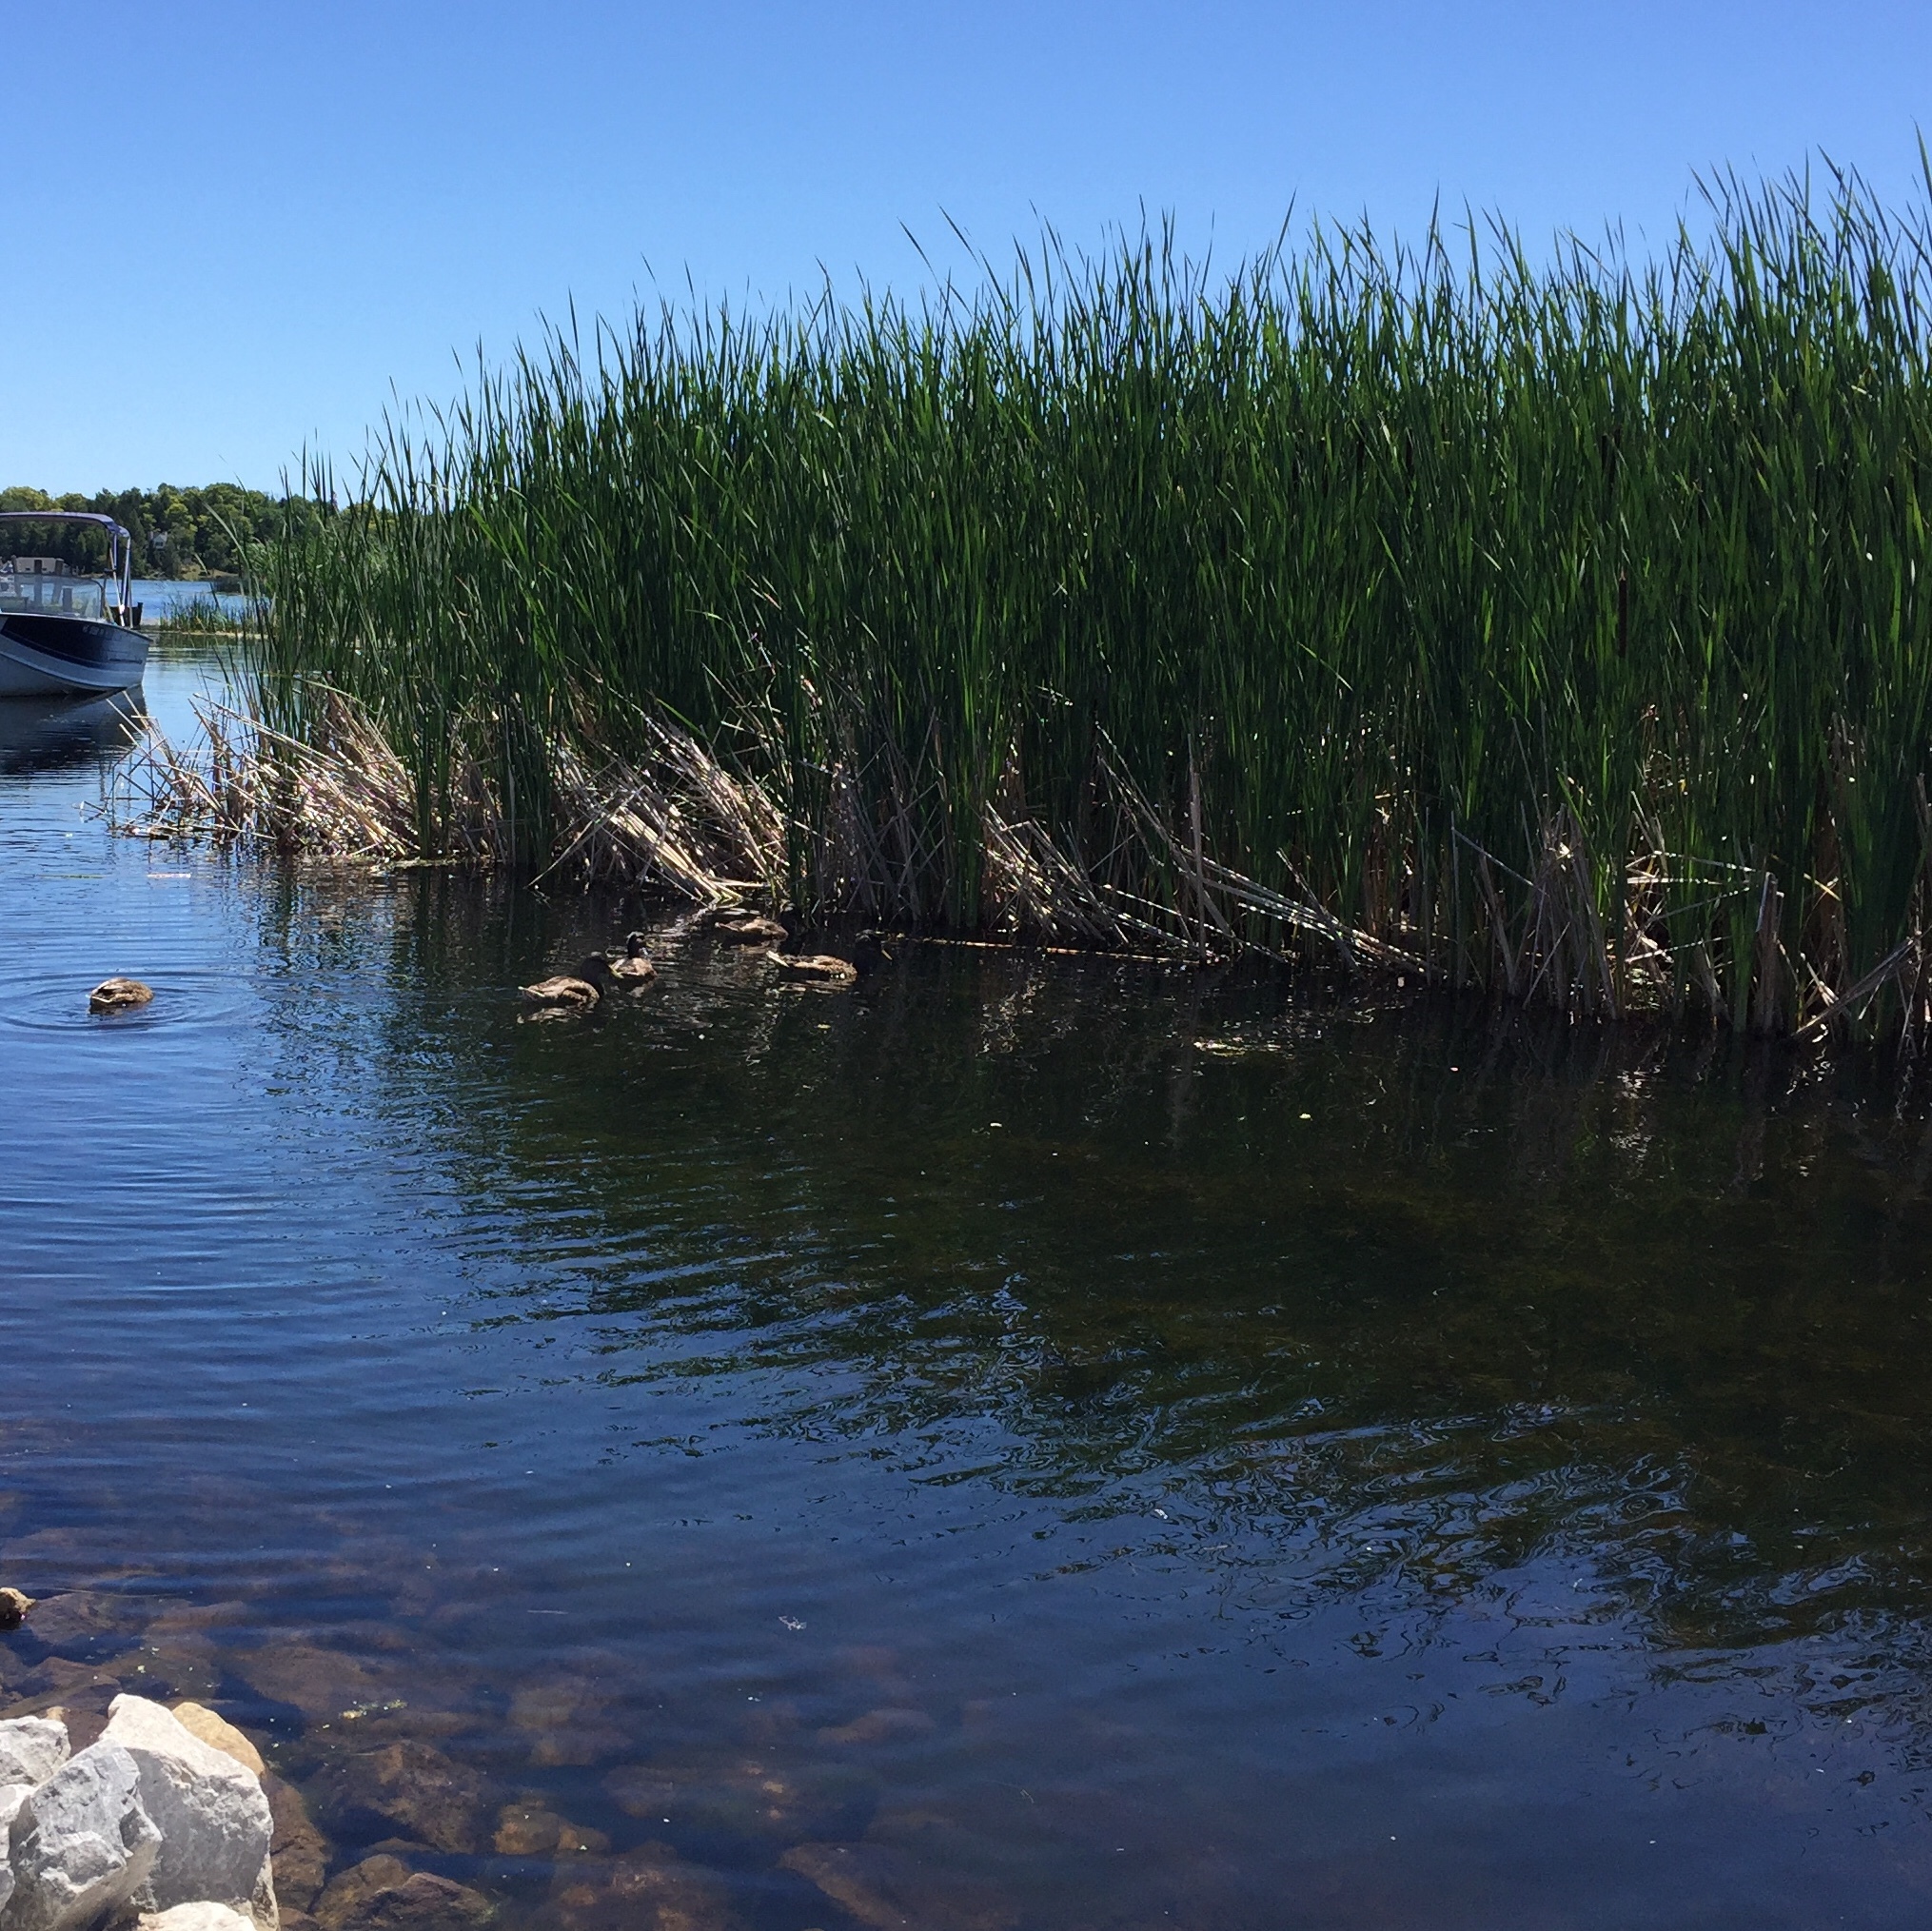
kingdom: Animalia
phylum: Chordata
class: Aves
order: Anseriformes
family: Anatidae
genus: Anas
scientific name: Anas platyrhynchos
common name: Mallard
